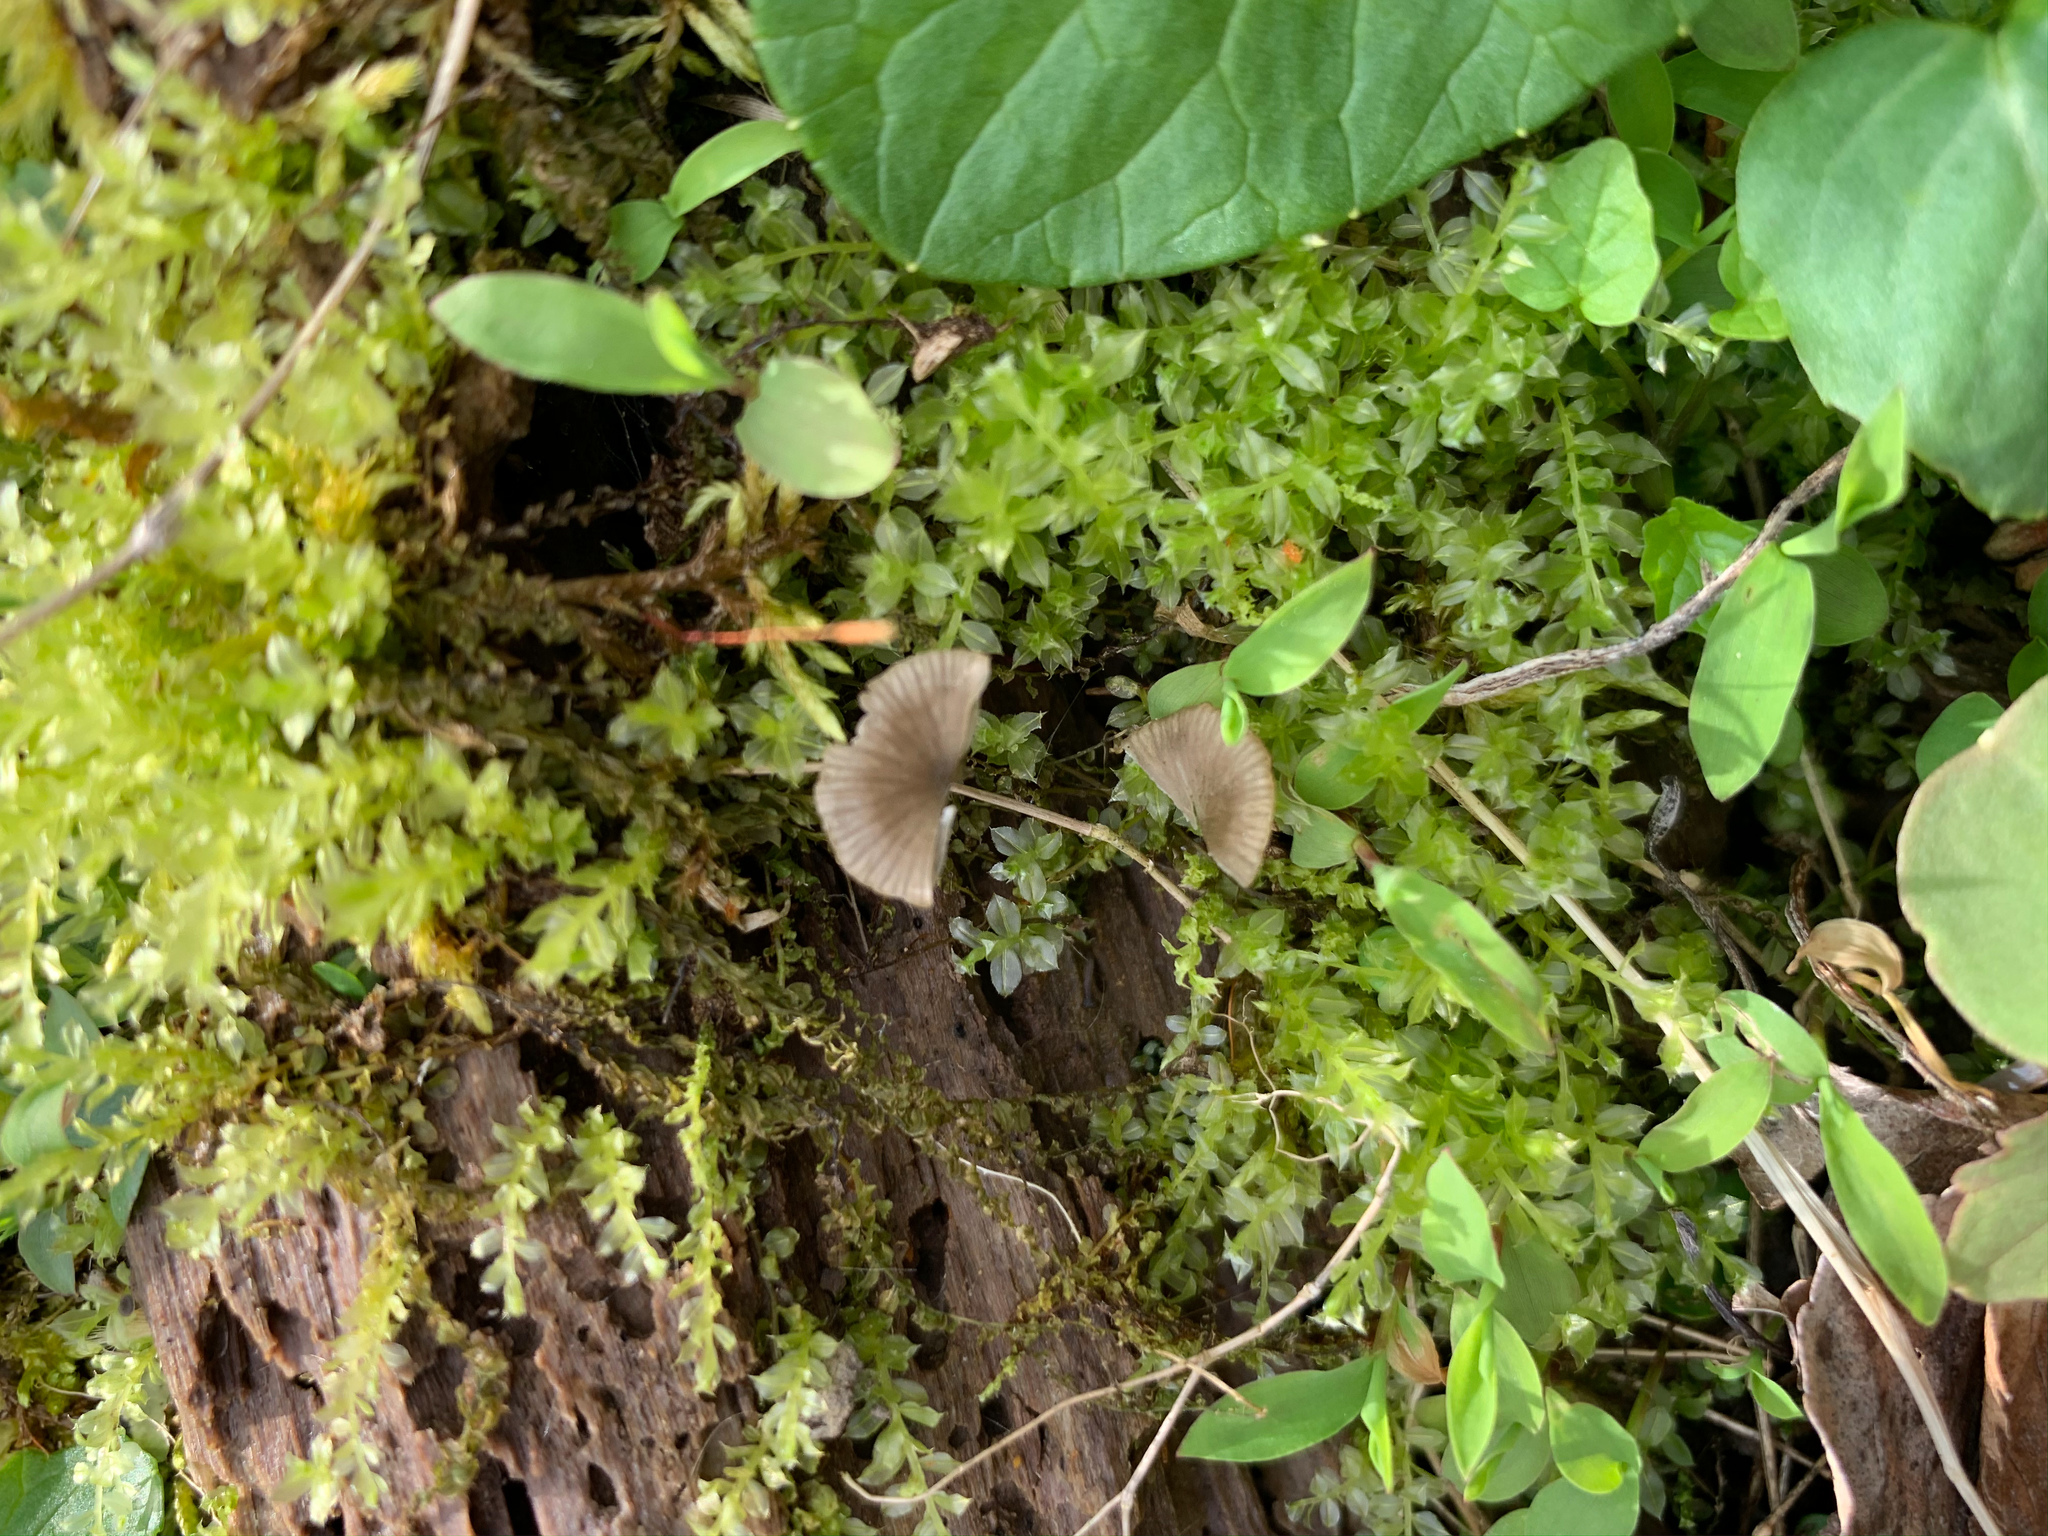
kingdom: Fungi
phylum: Basidiomycota
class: Agaricomycetes
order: Agaricales
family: Hygrophoraceae
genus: Arrhenia
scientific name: Arrhenia epichysium
